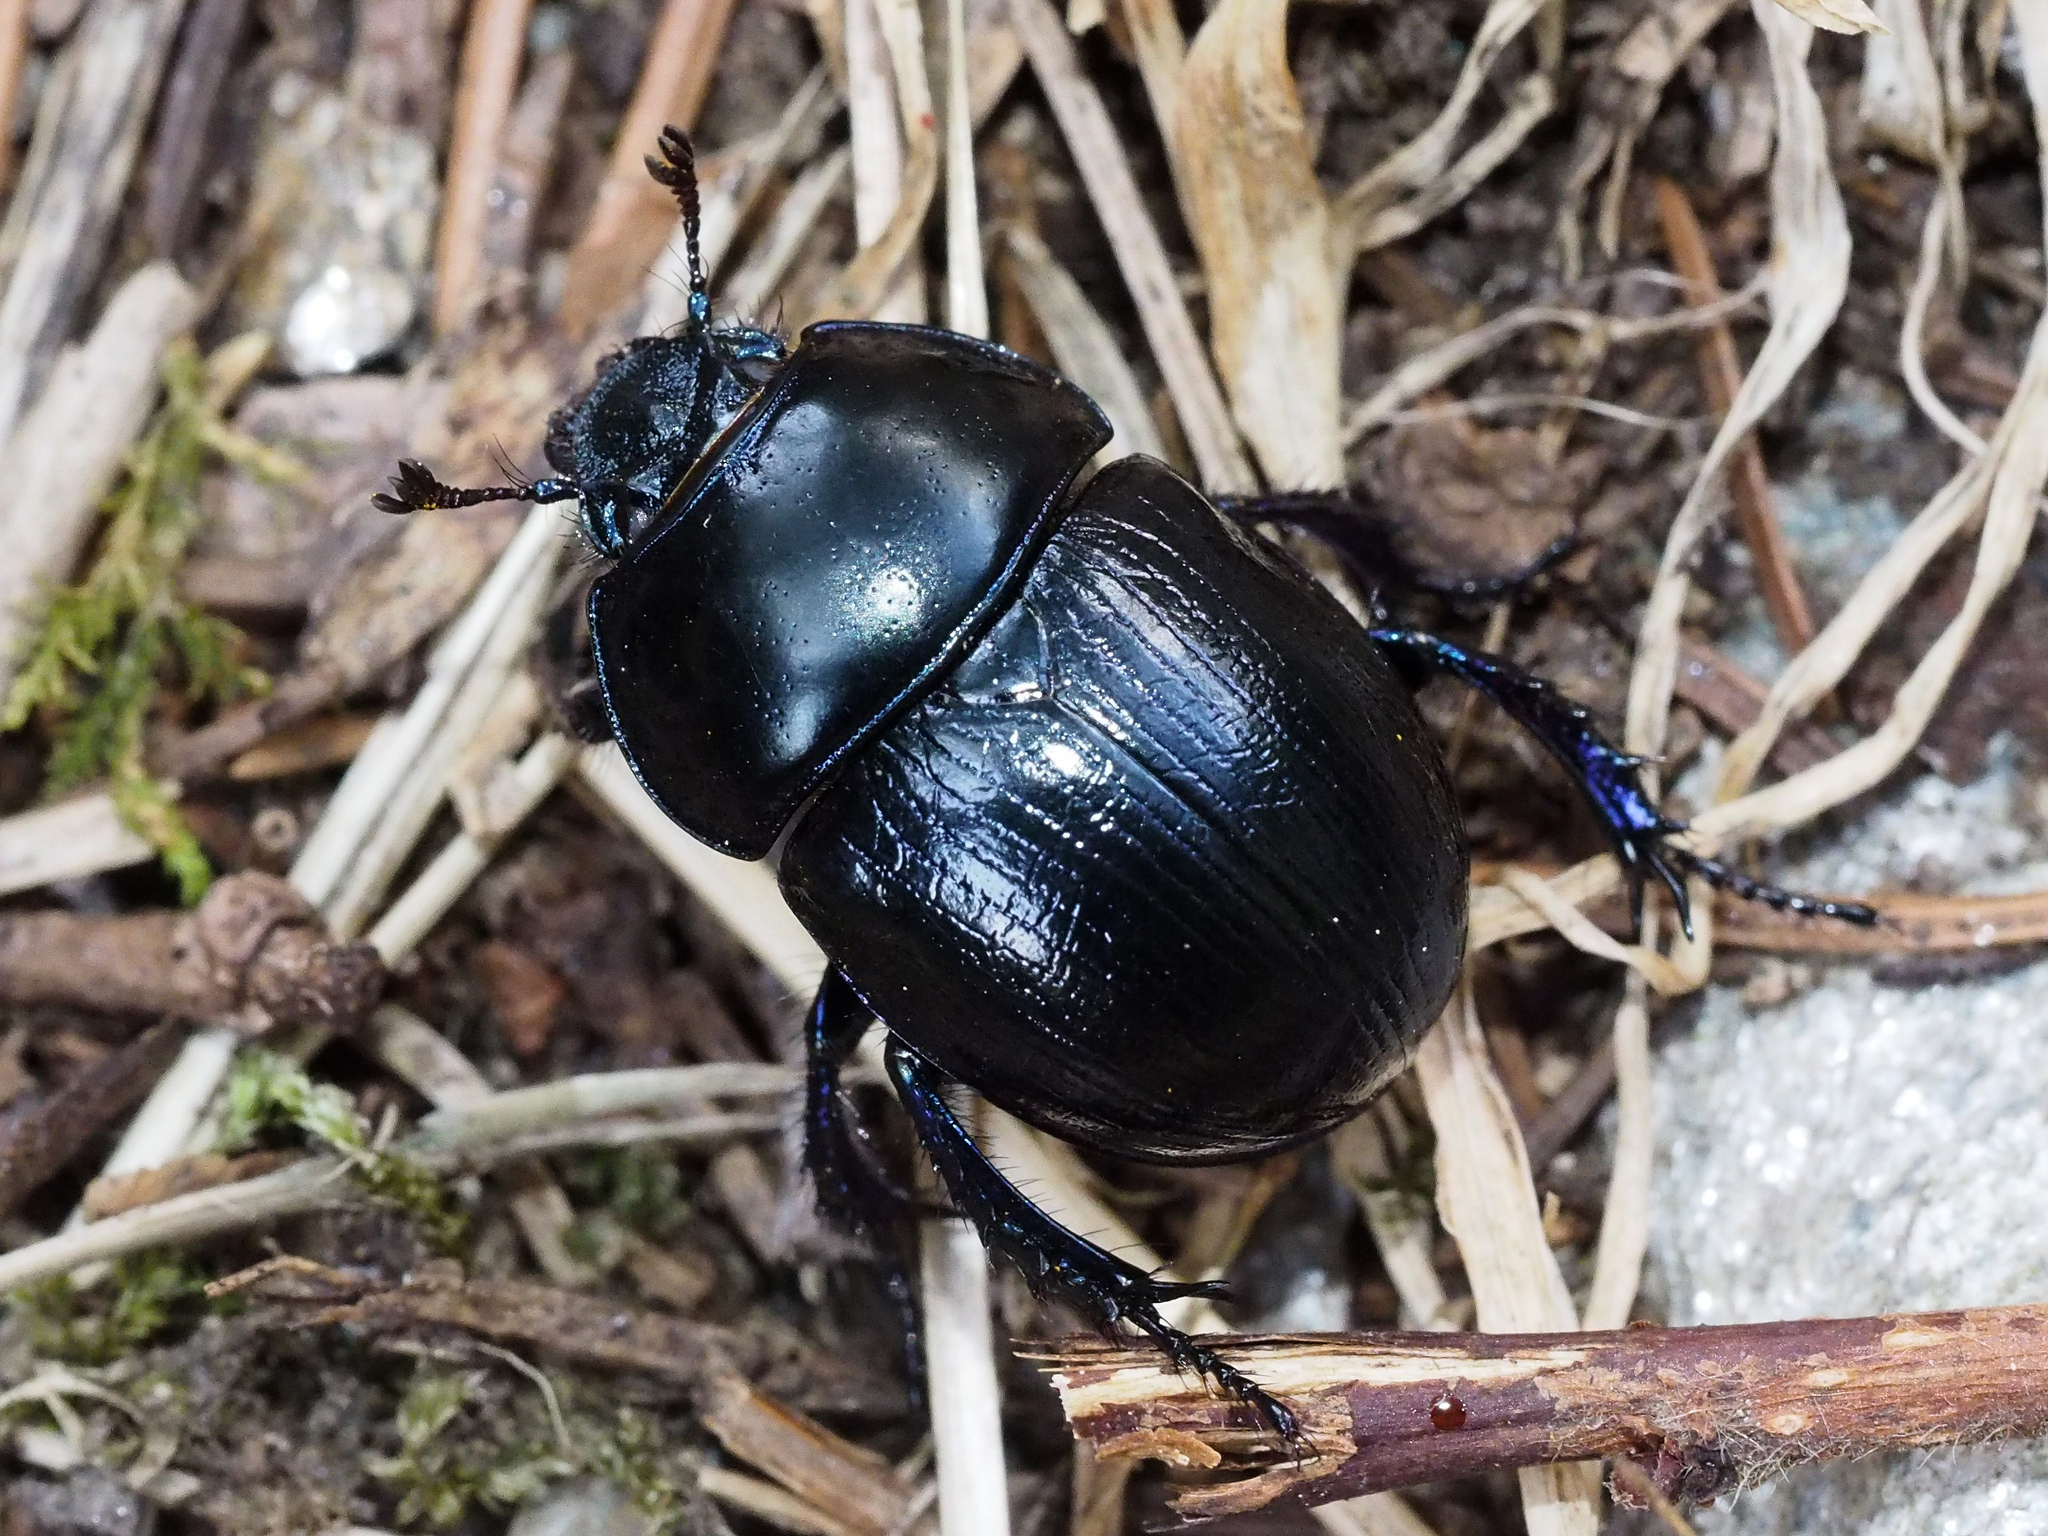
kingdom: Animalia
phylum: Arthropoda
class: Insecta
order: Coleoptera
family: Geotrupidae
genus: Anoplotrupes
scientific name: Anoplotrupes stercorosus
